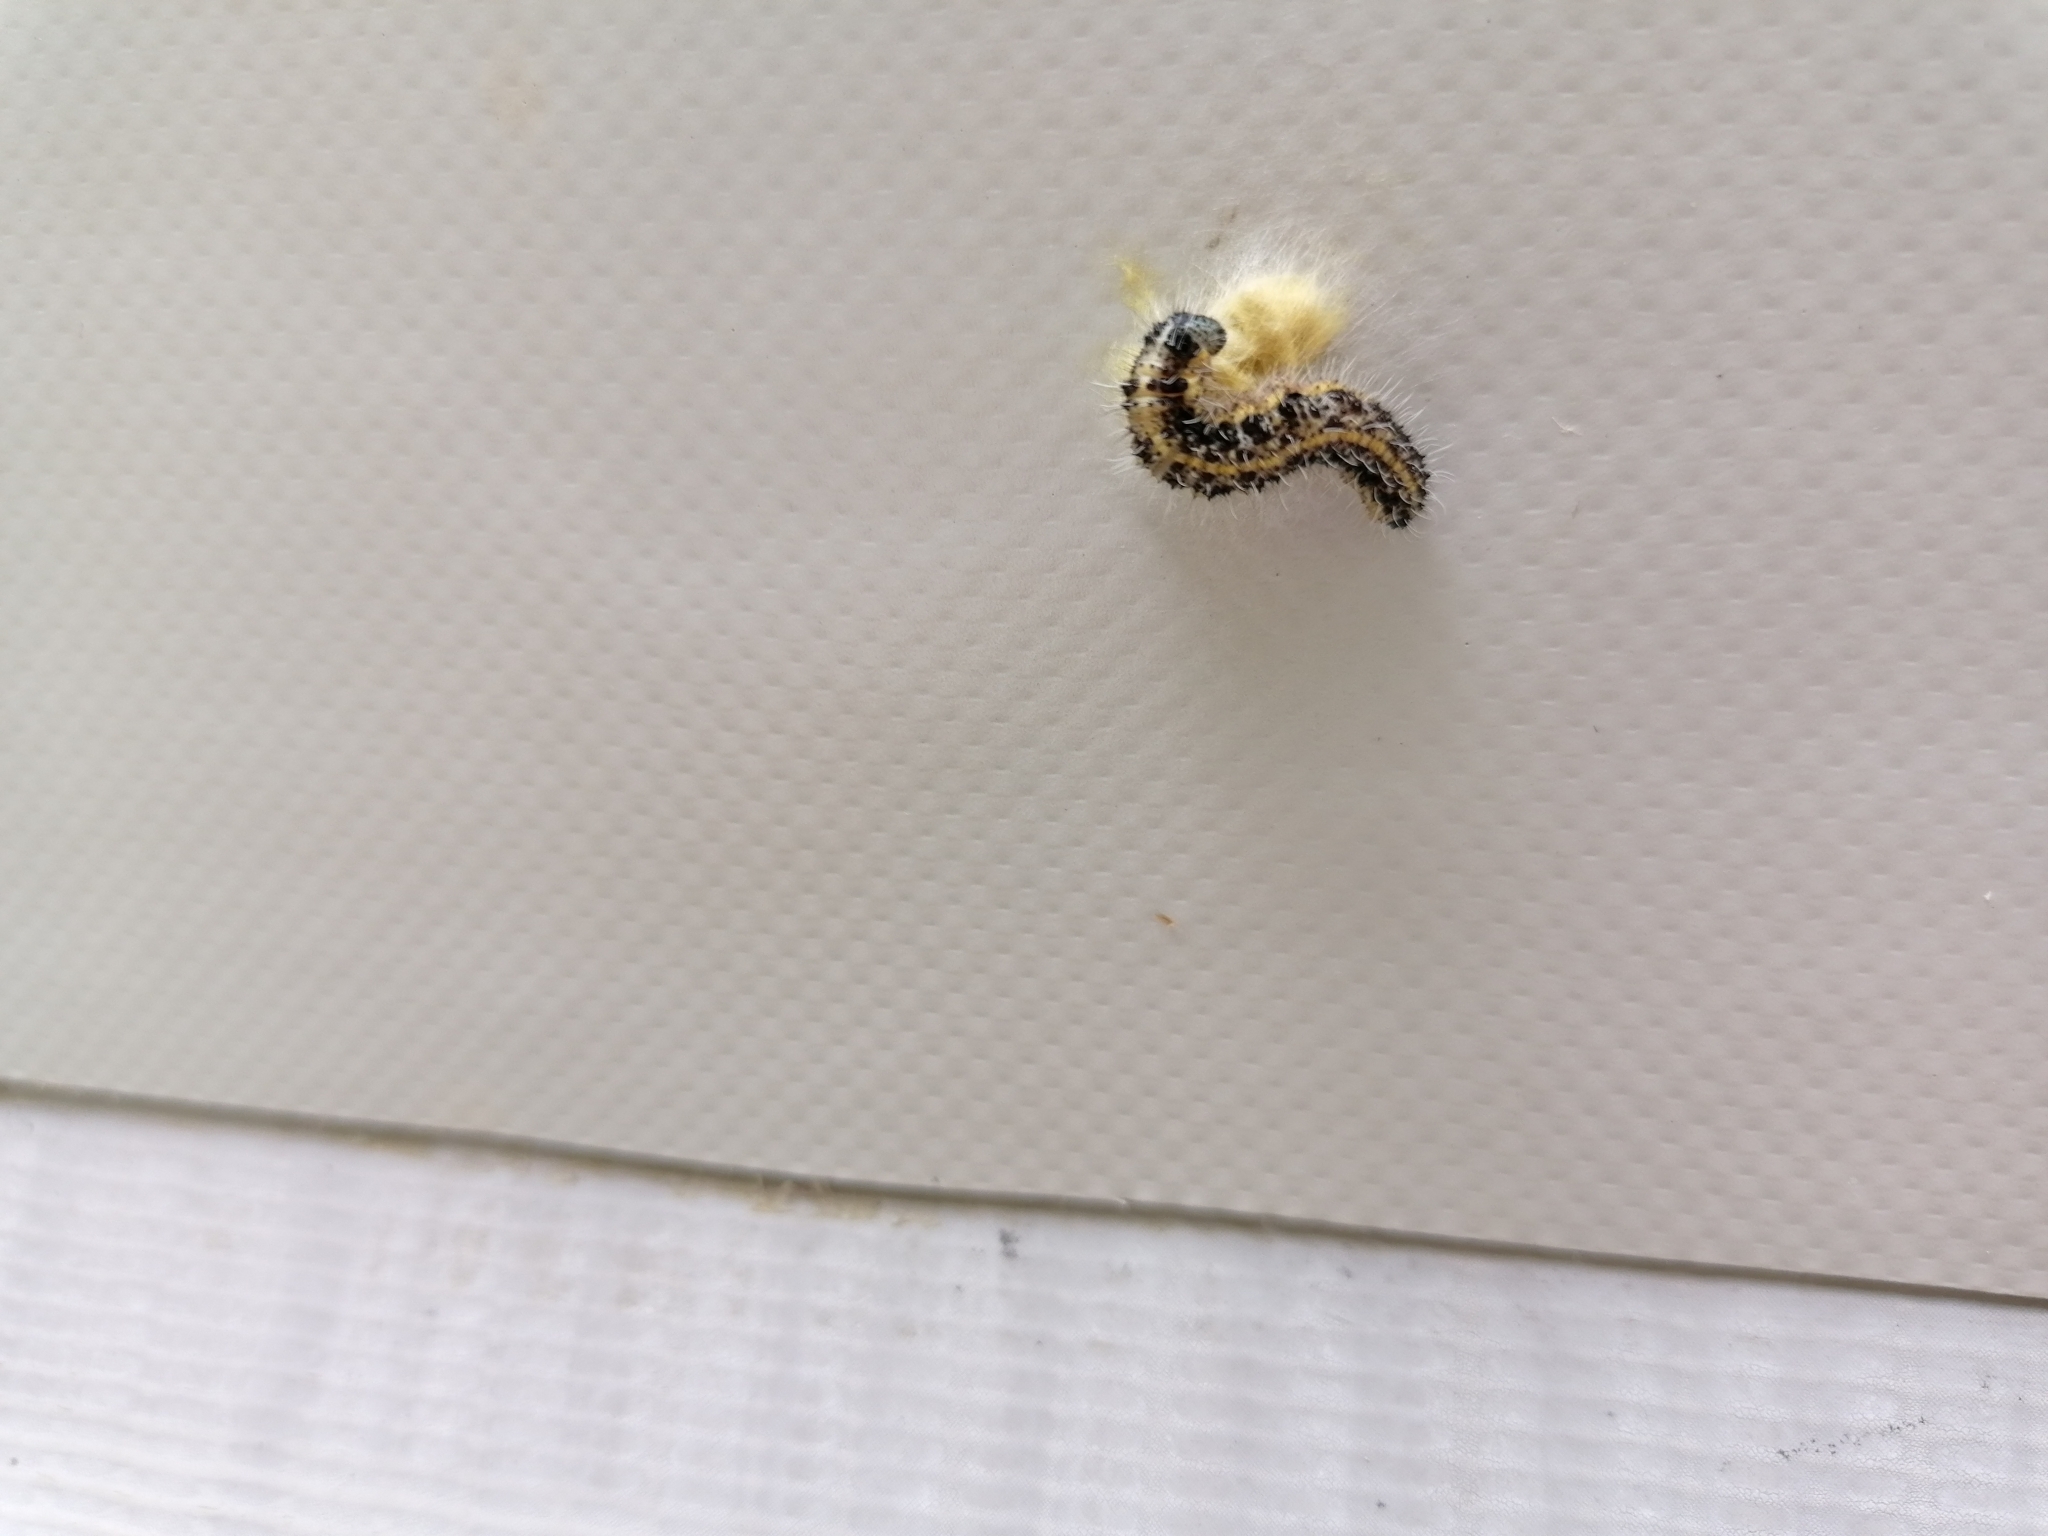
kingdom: Animalia
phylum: Arthropoda
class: Insecta
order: Lepidoptera
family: Pieridae
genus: Pieris
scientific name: Pieris brassicae
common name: Large white
